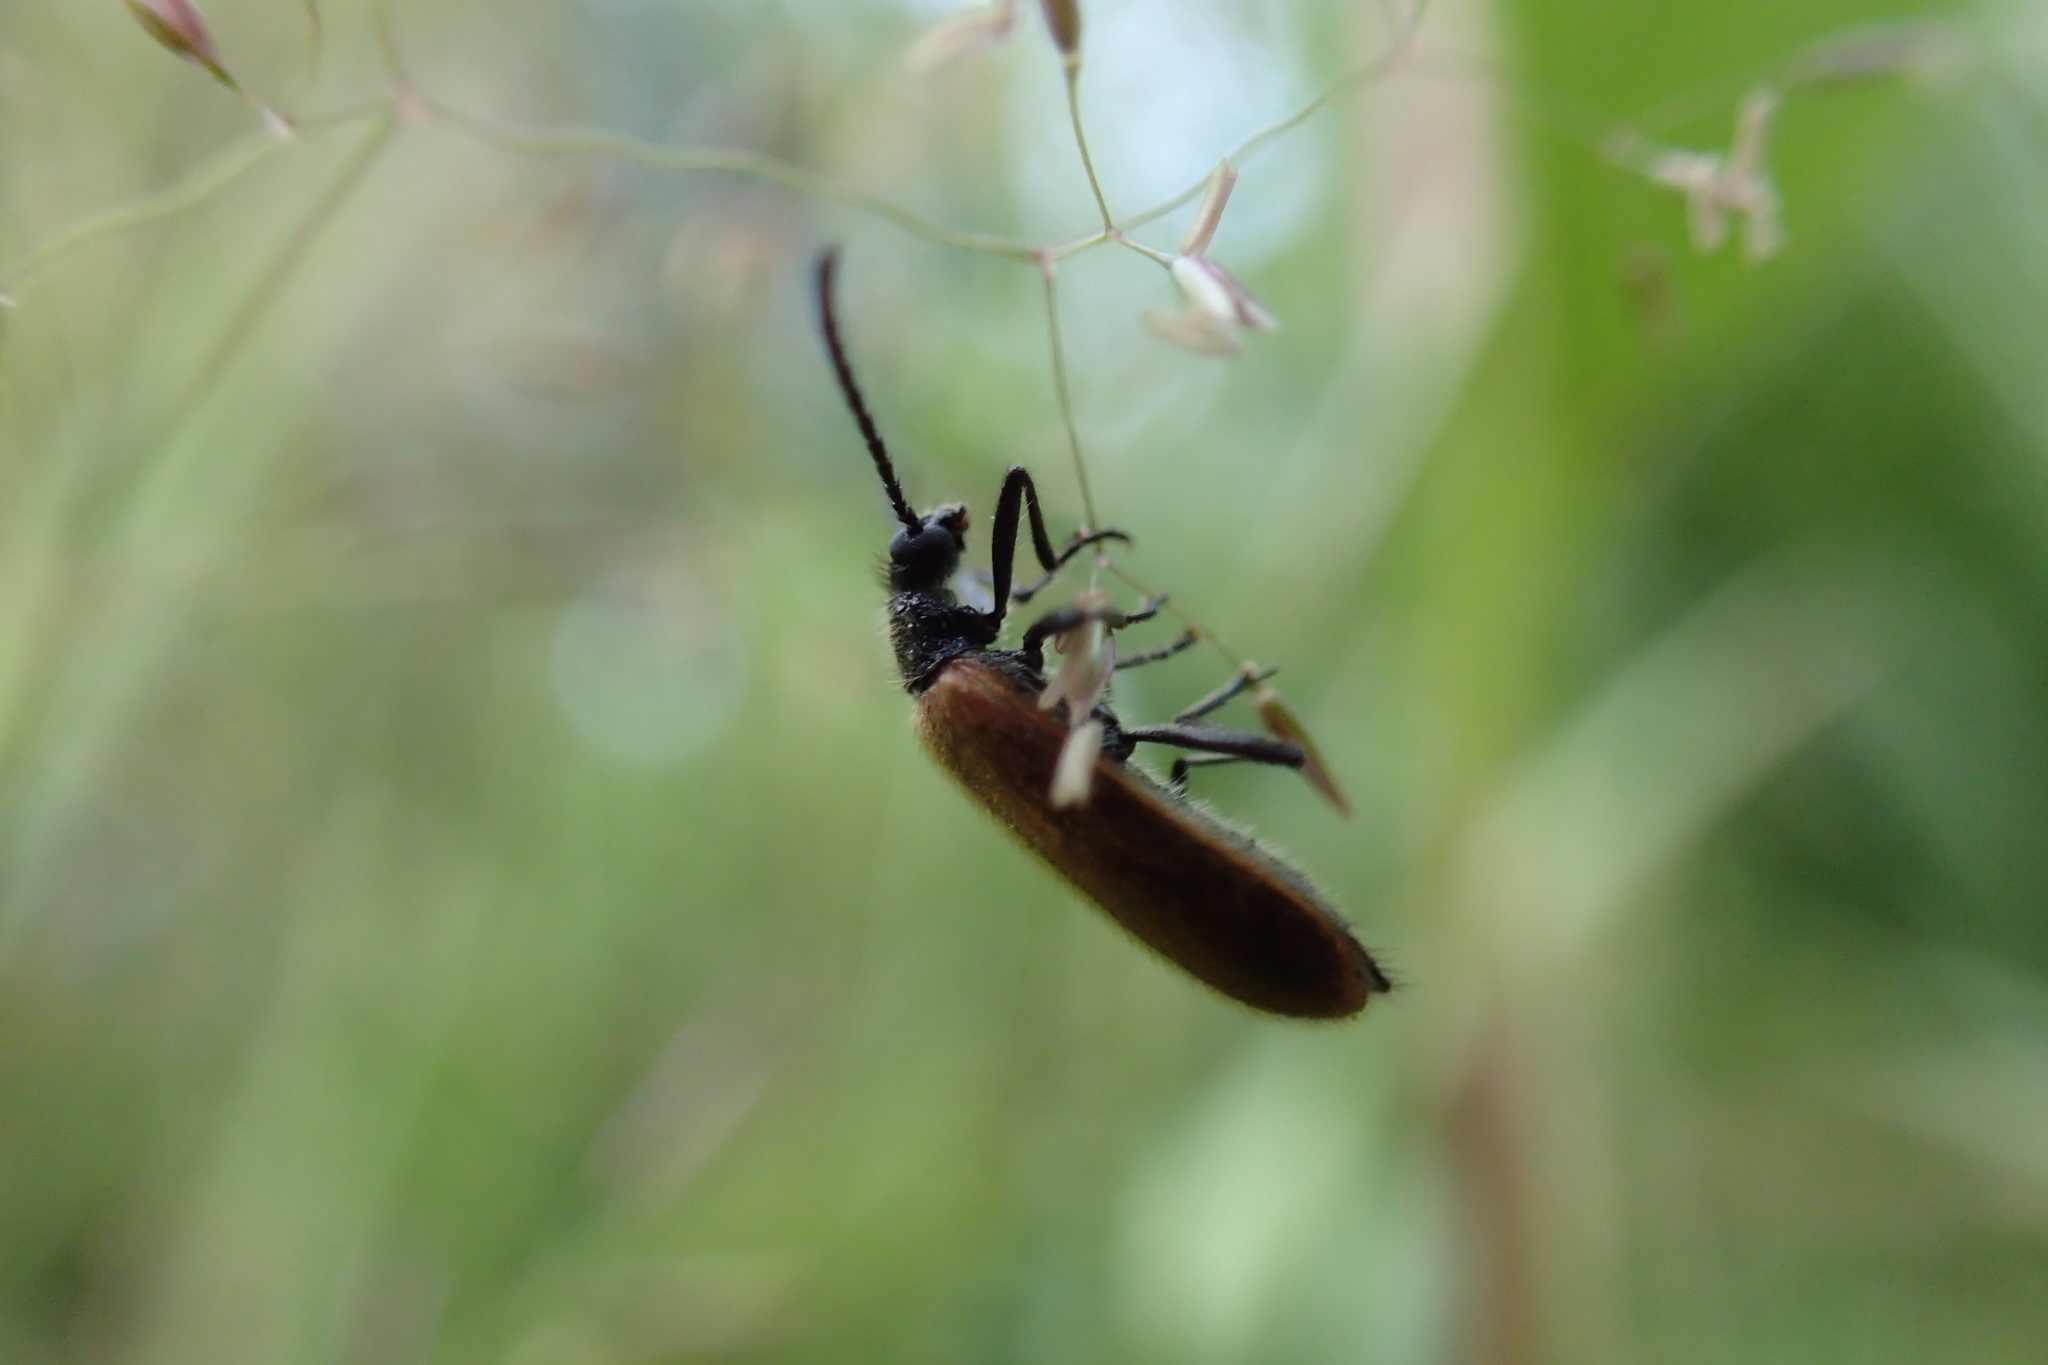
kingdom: Animalia
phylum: Arthropoda
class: Insecta
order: Coleoptera
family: Tenebrionidae
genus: Lagria
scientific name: Lagria hirta
